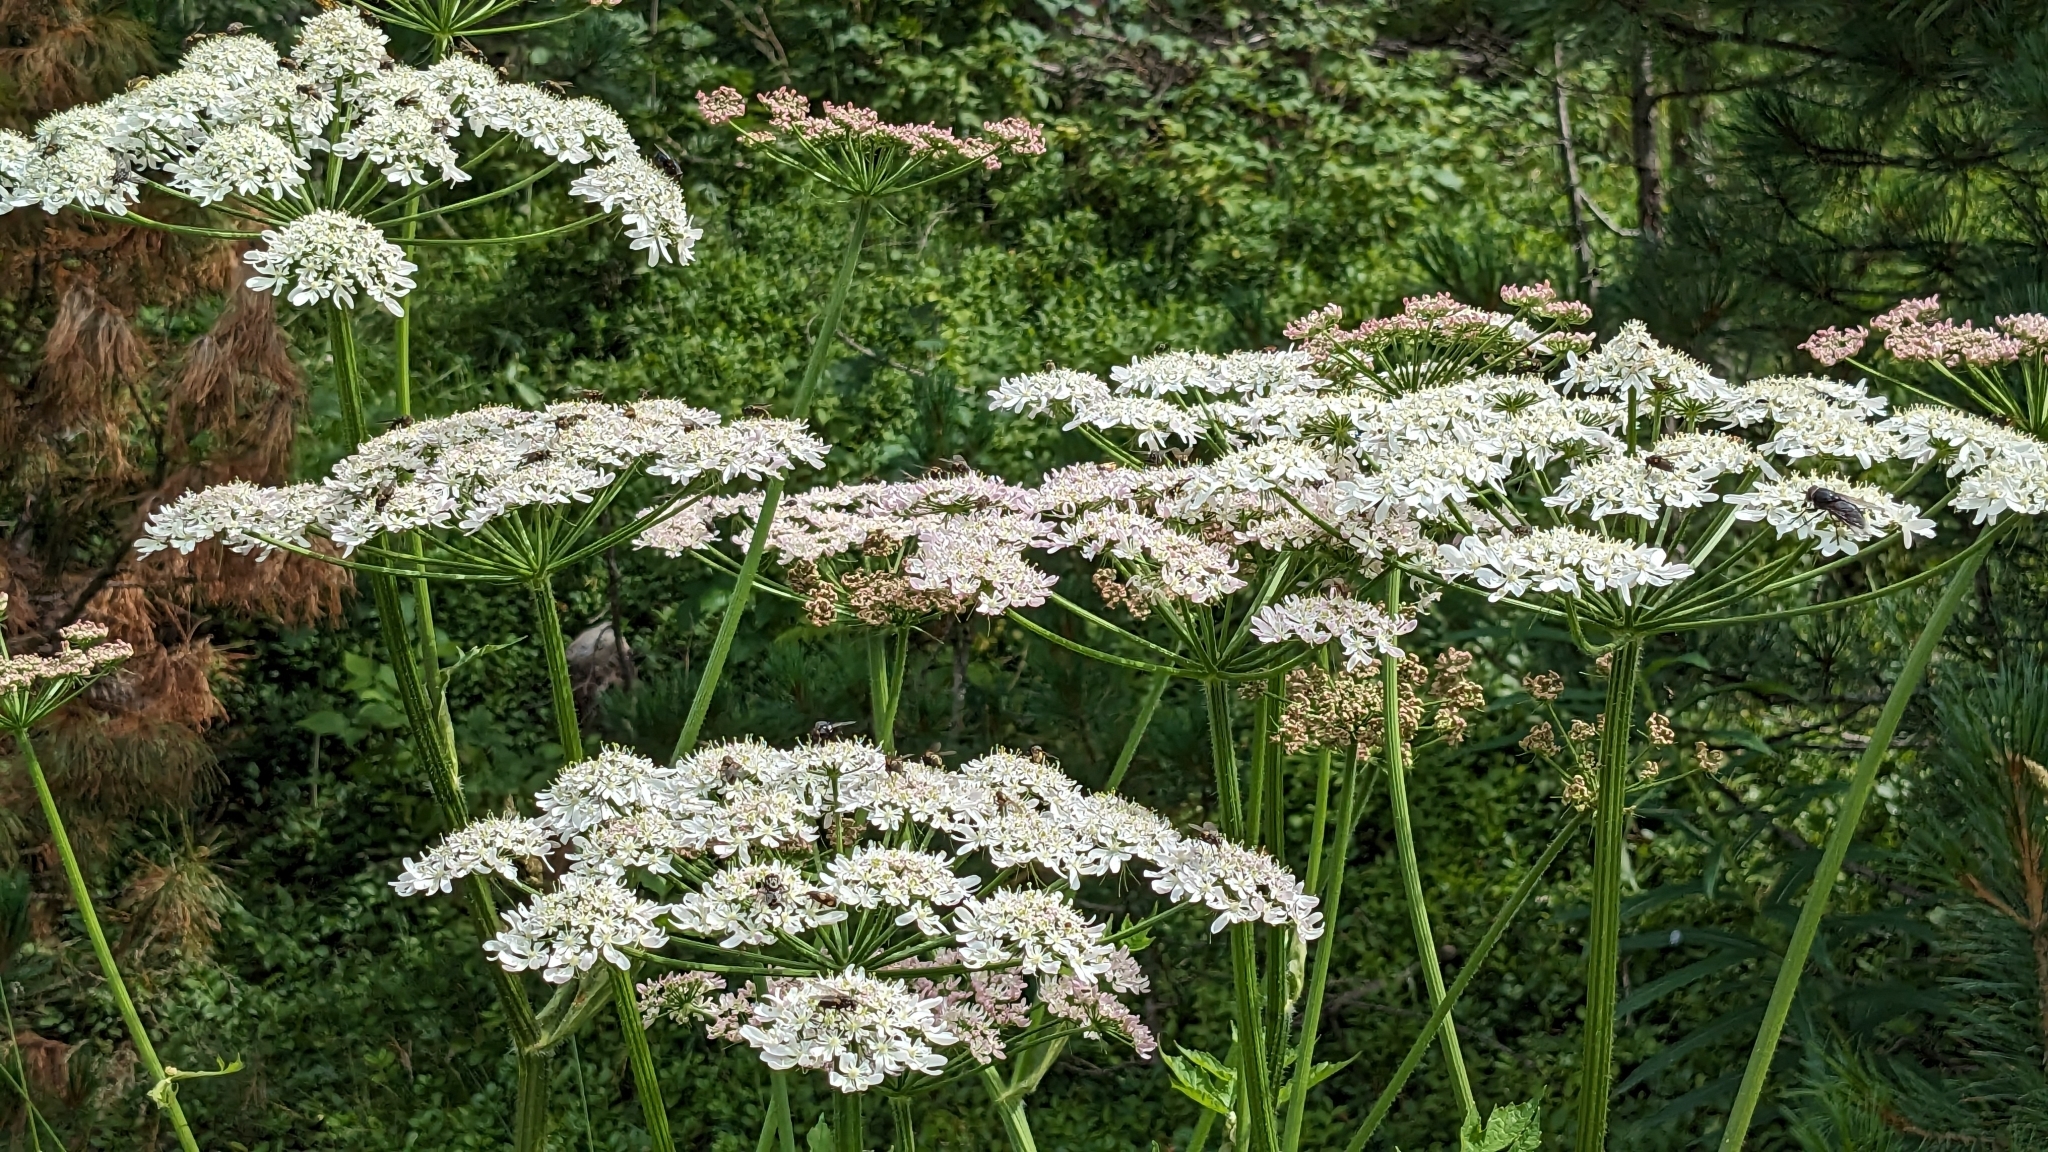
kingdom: Plantae
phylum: Tracheophyta
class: Magnoliopsida
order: Apiales
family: Apiaceae
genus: Heracleum
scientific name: Heracleum sphondylium
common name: Hogweed
